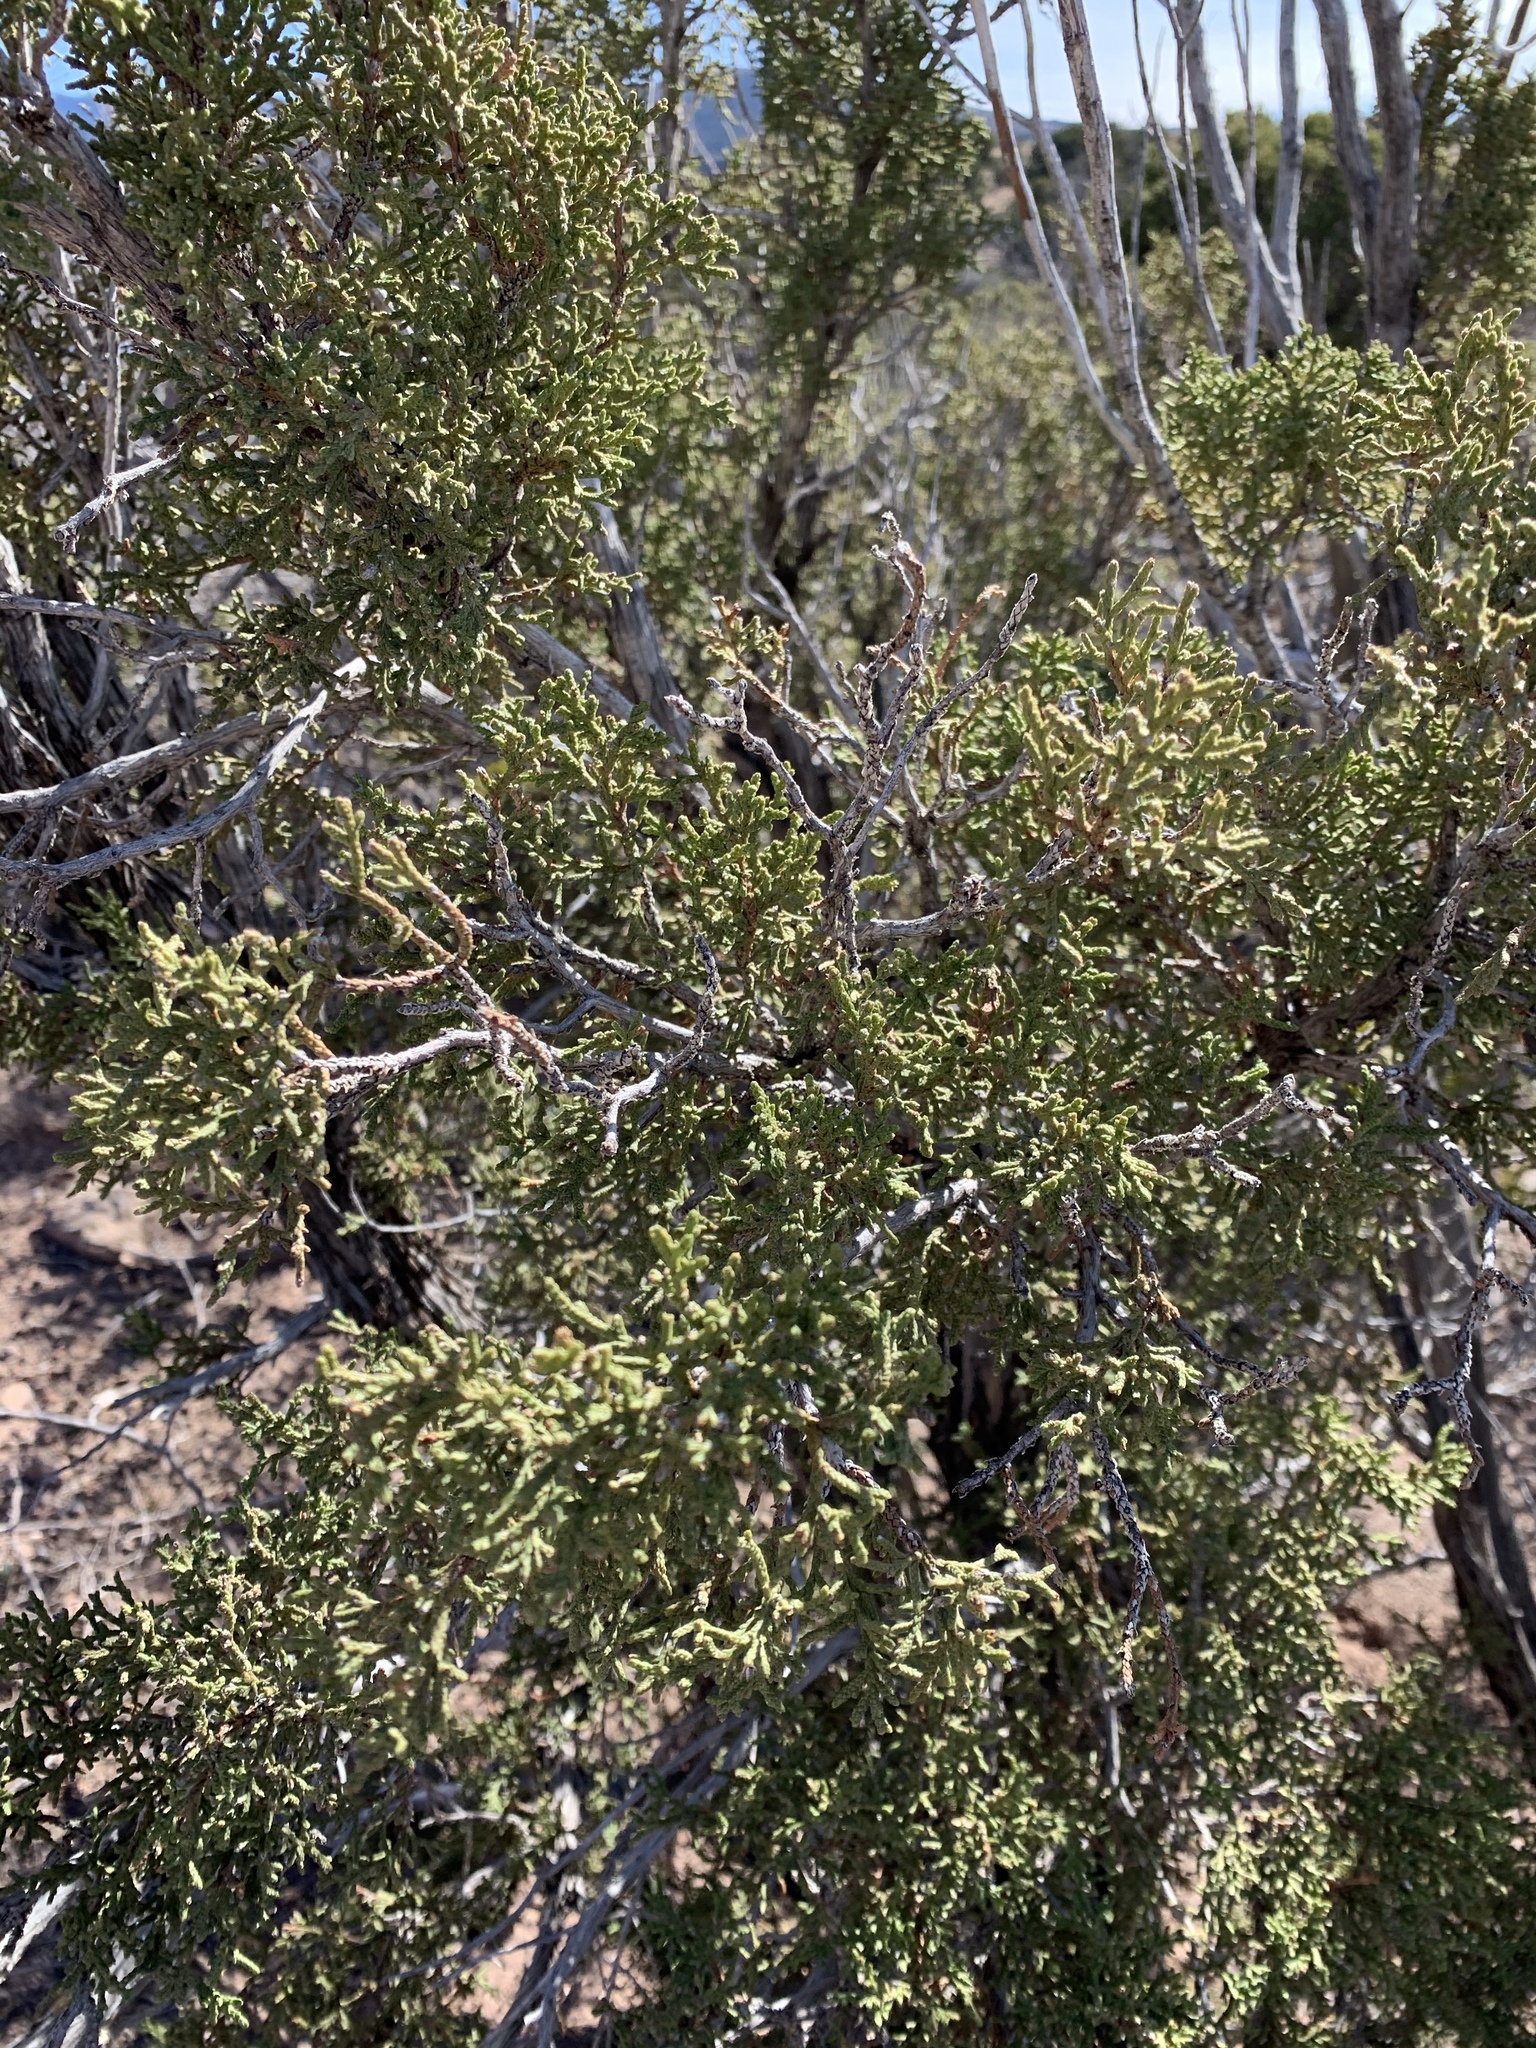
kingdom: Plantae
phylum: Tracheophyta
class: Pinopsida
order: Pinales
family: Cupressaceae
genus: Juniperus
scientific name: Juniperus monosperma
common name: One-seed juniper
